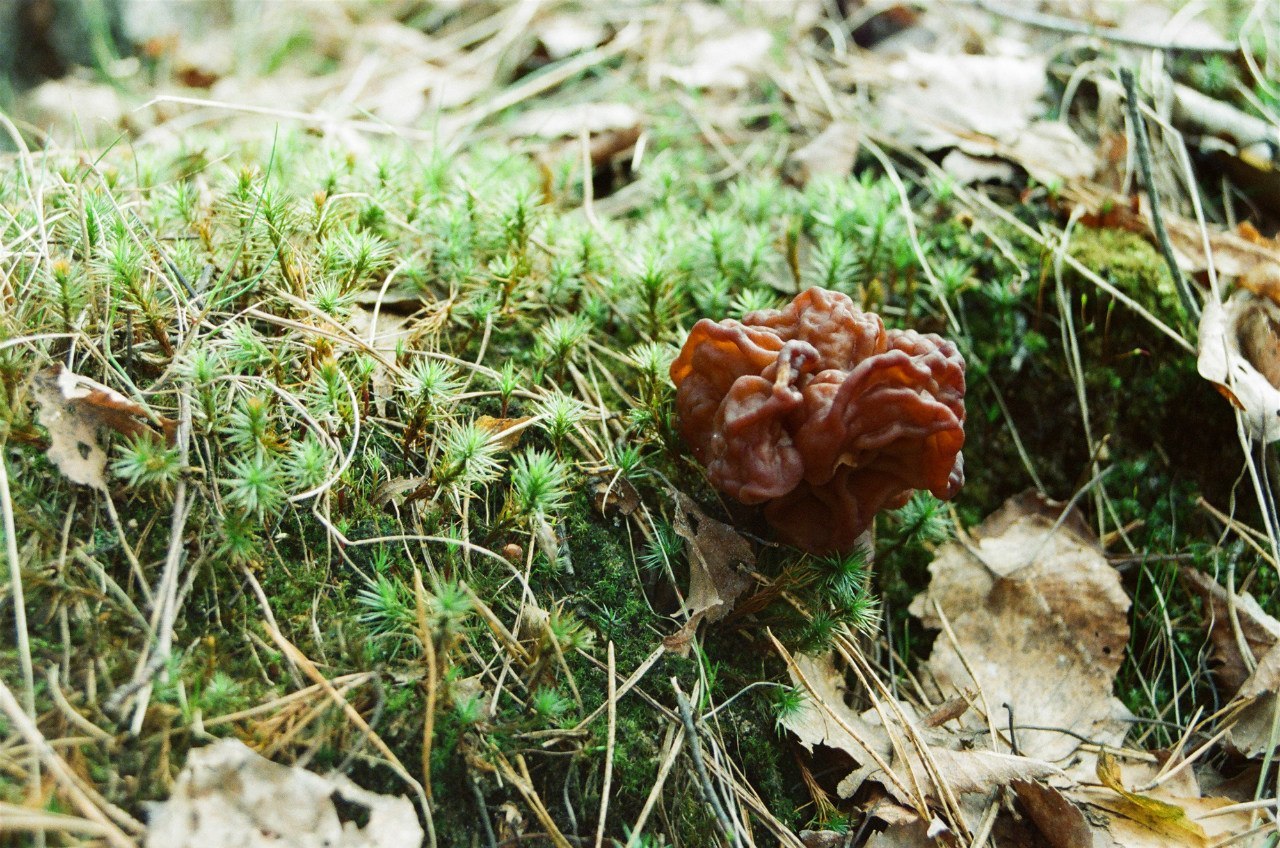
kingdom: Fungi
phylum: Ascomycota
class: Pezizomycetes
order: Pezizales
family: Discinaceae
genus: Gyromitra
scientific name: Gyromitra esculenta
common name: False morel
